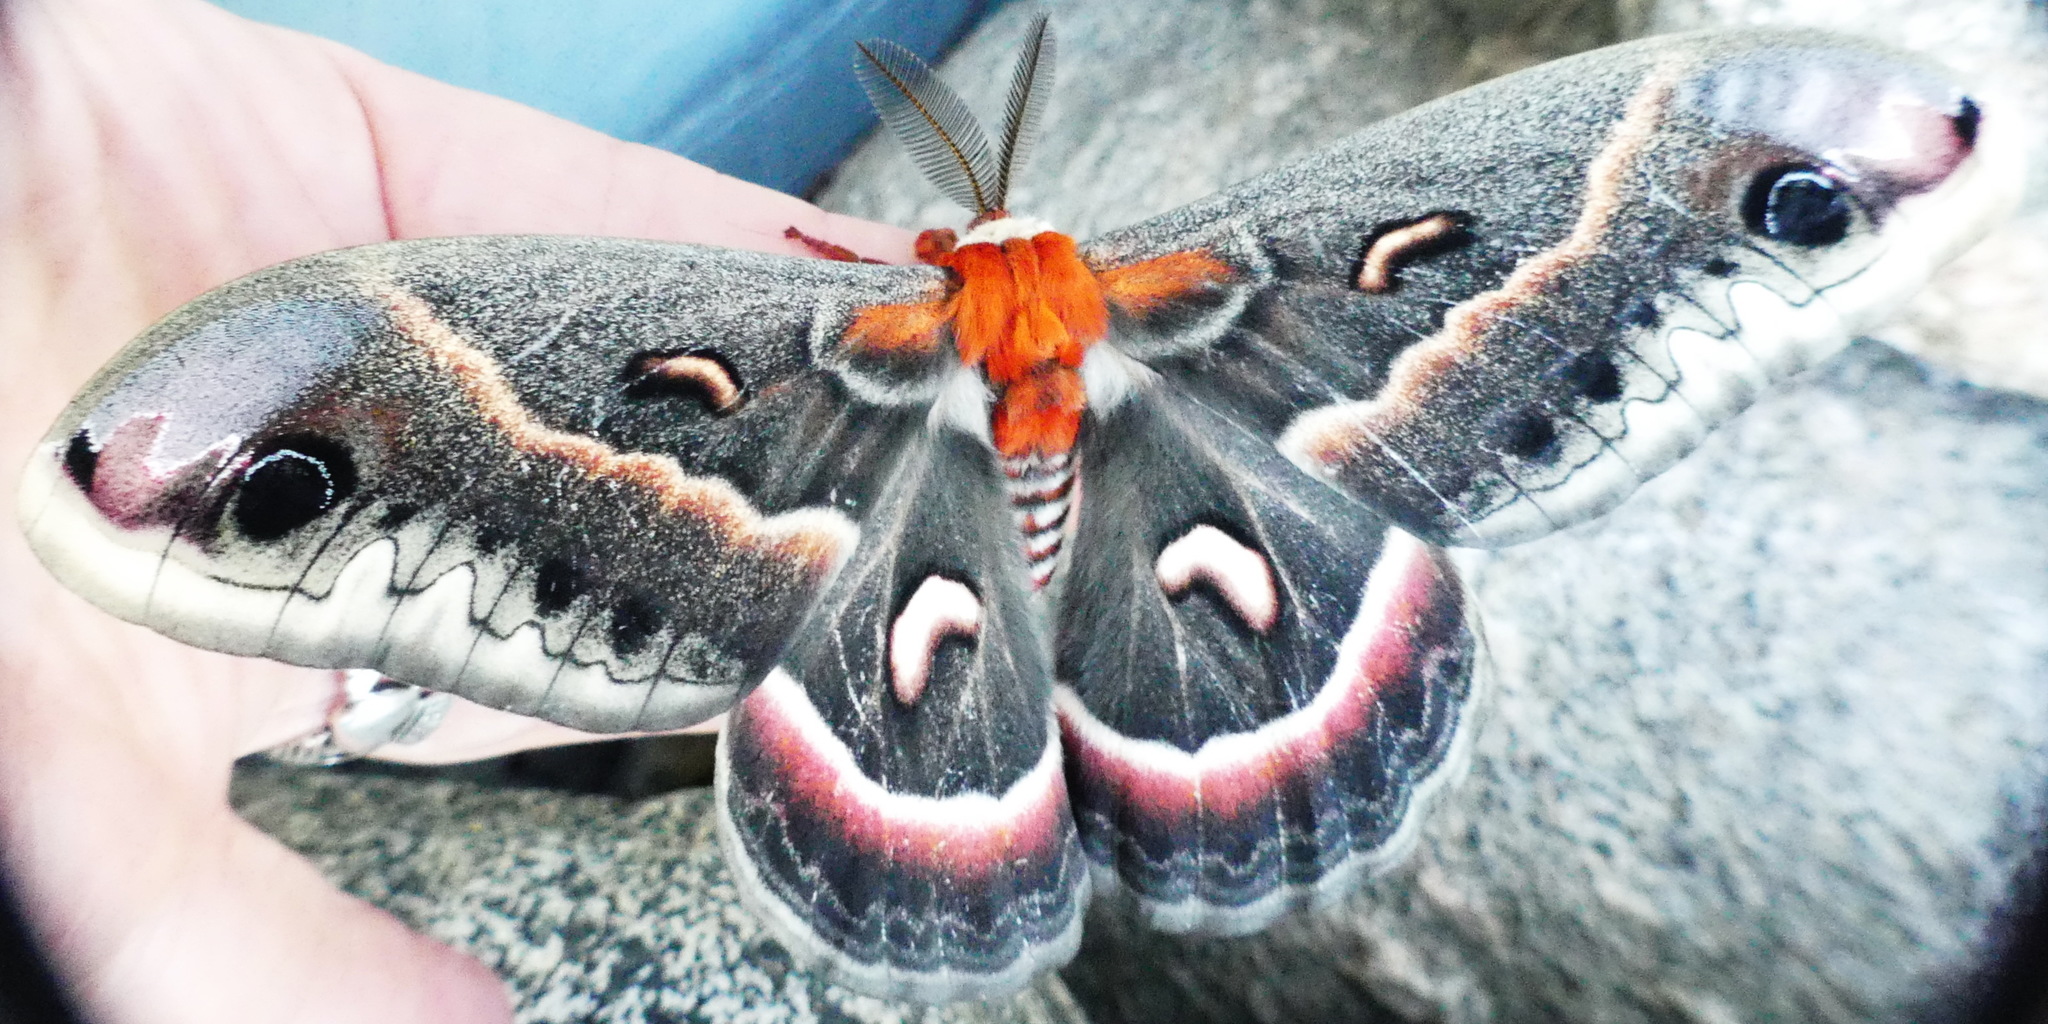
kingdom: Animalia
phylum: Arthropoda
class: Insecta
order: Lepidoptera
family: Saturniidae
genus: Hyalophora
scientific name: Hyalophora cecropia
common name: Cecropia silkmoth
